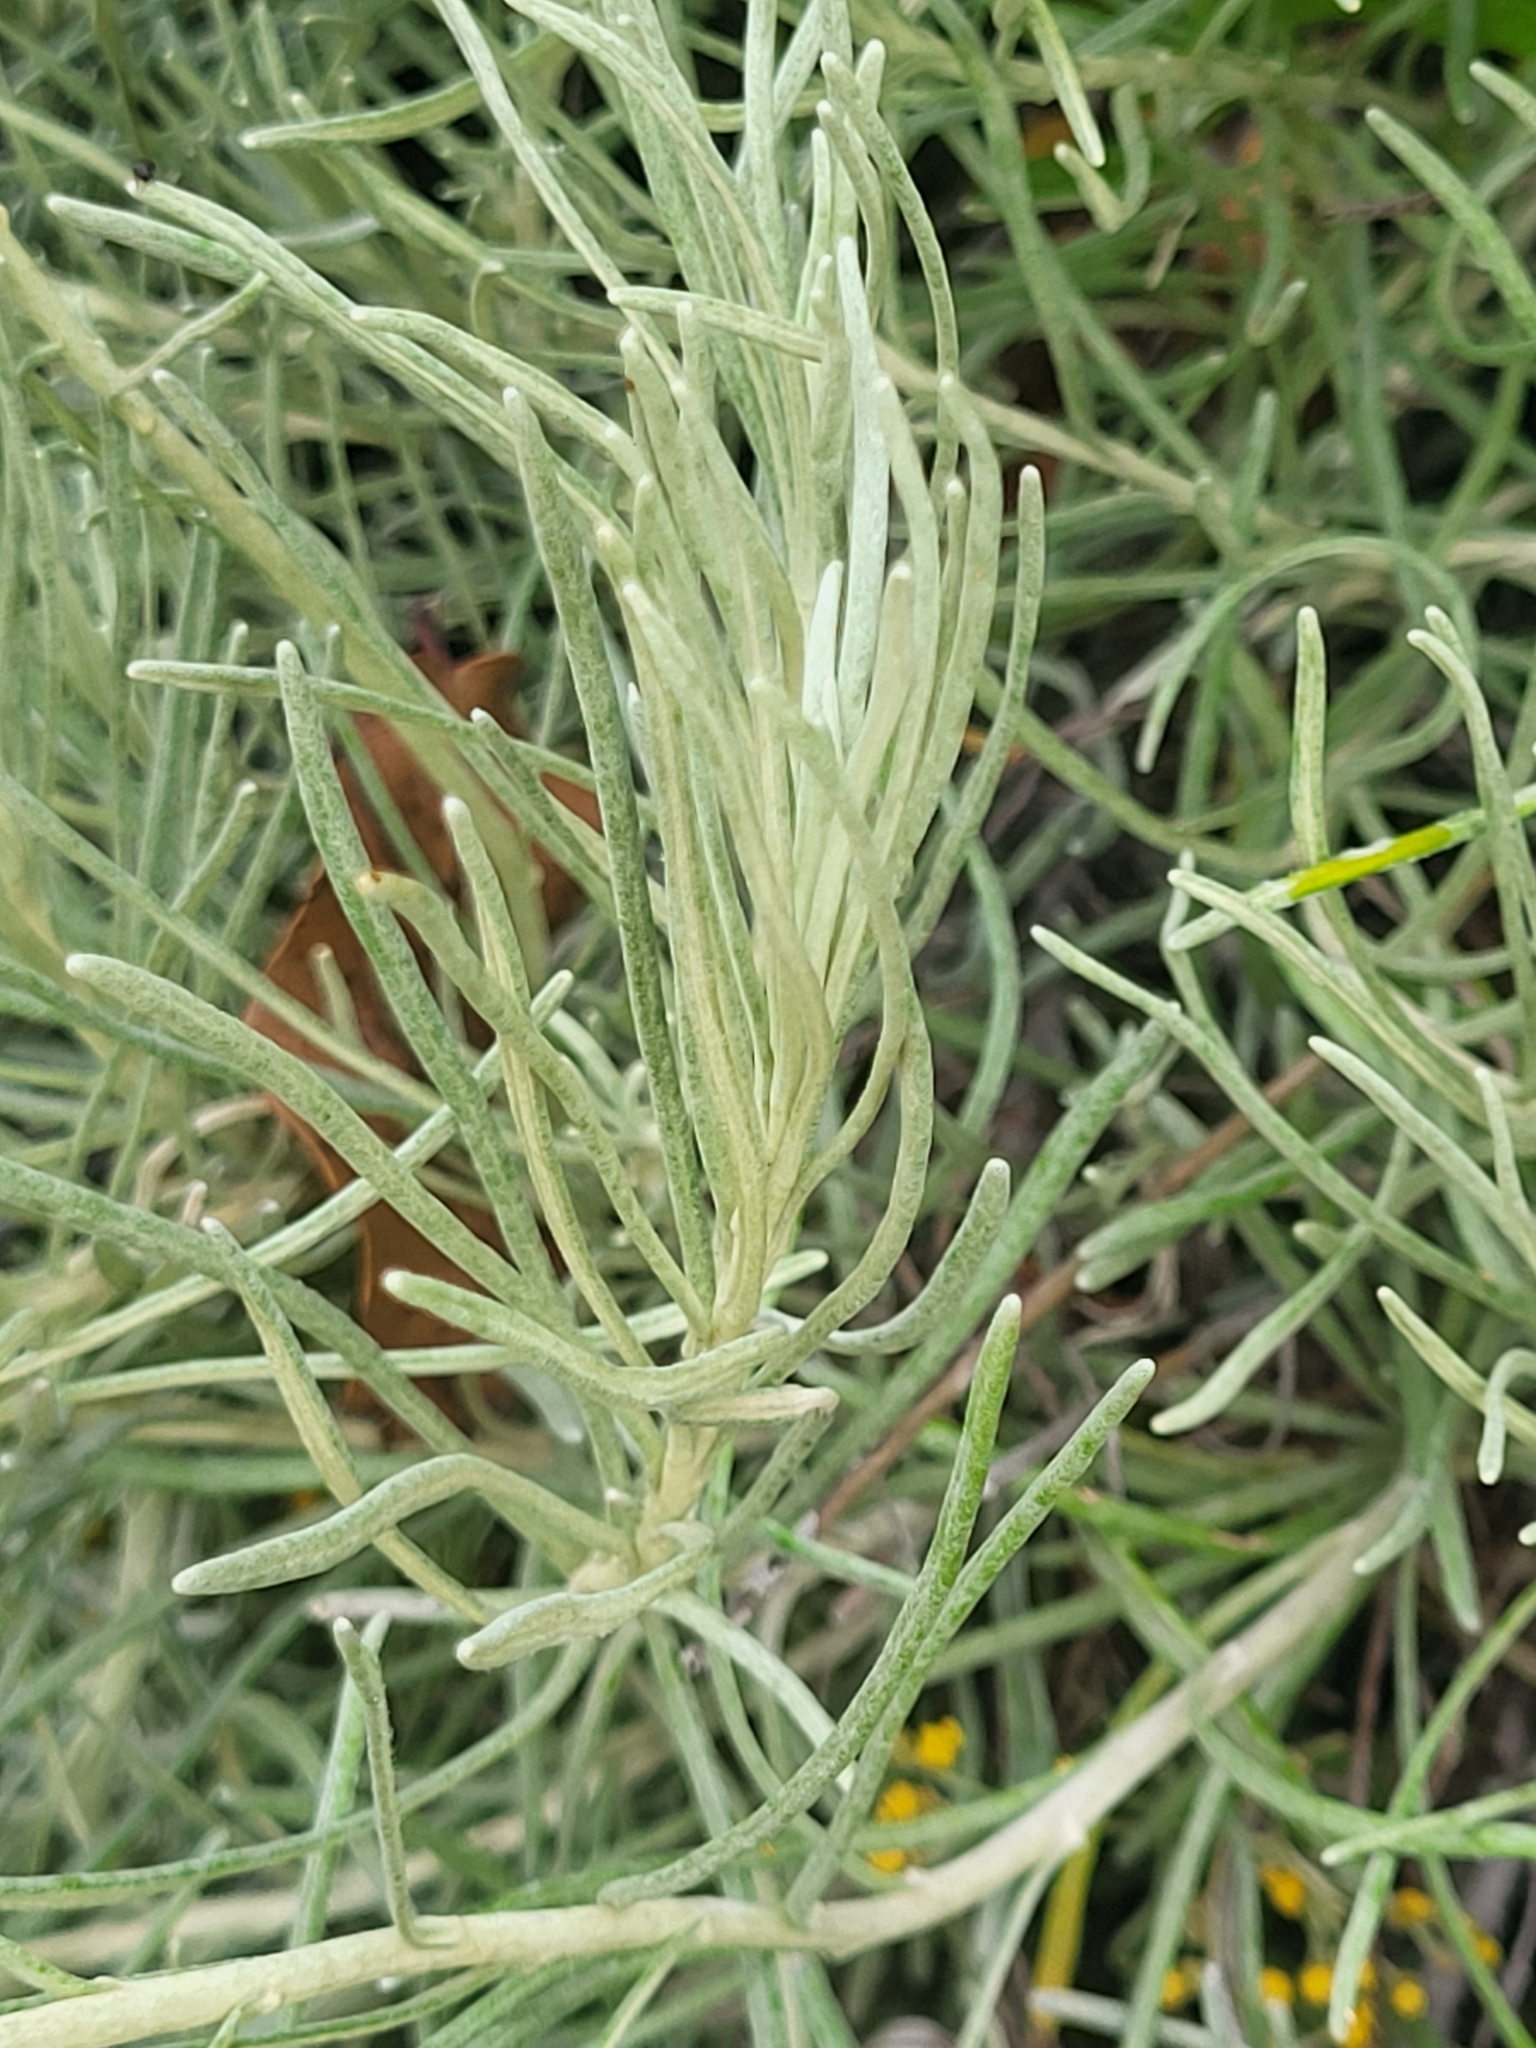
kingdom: Plantae
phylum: Tracheophyta
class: Magnoliopsida
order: Asterales
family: Asteraceae
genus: Helichrysum
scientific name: Helichrysum italicum
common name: Curryplant
